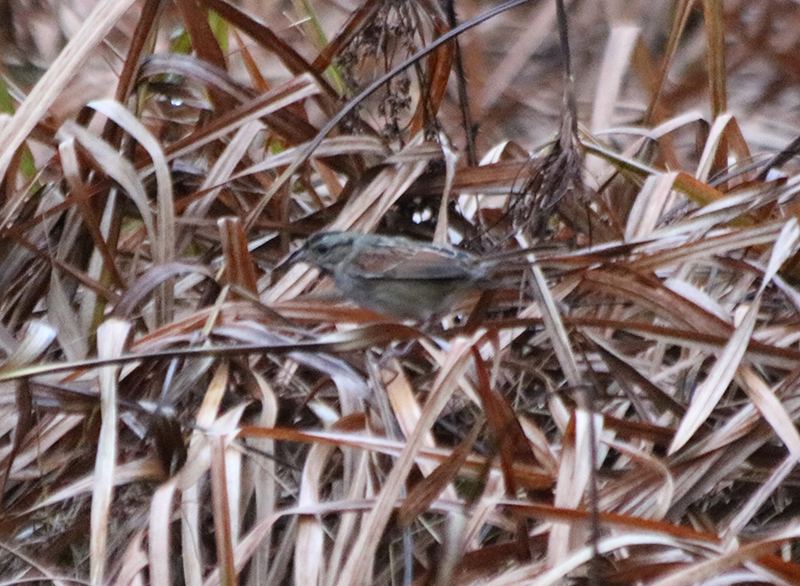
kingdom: Animalia
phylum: Chordata
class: Aves
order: Passeriformes
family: Passerellidae
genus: Melospiza
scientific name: Melospiza georgiana
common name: Swamp sparrow
